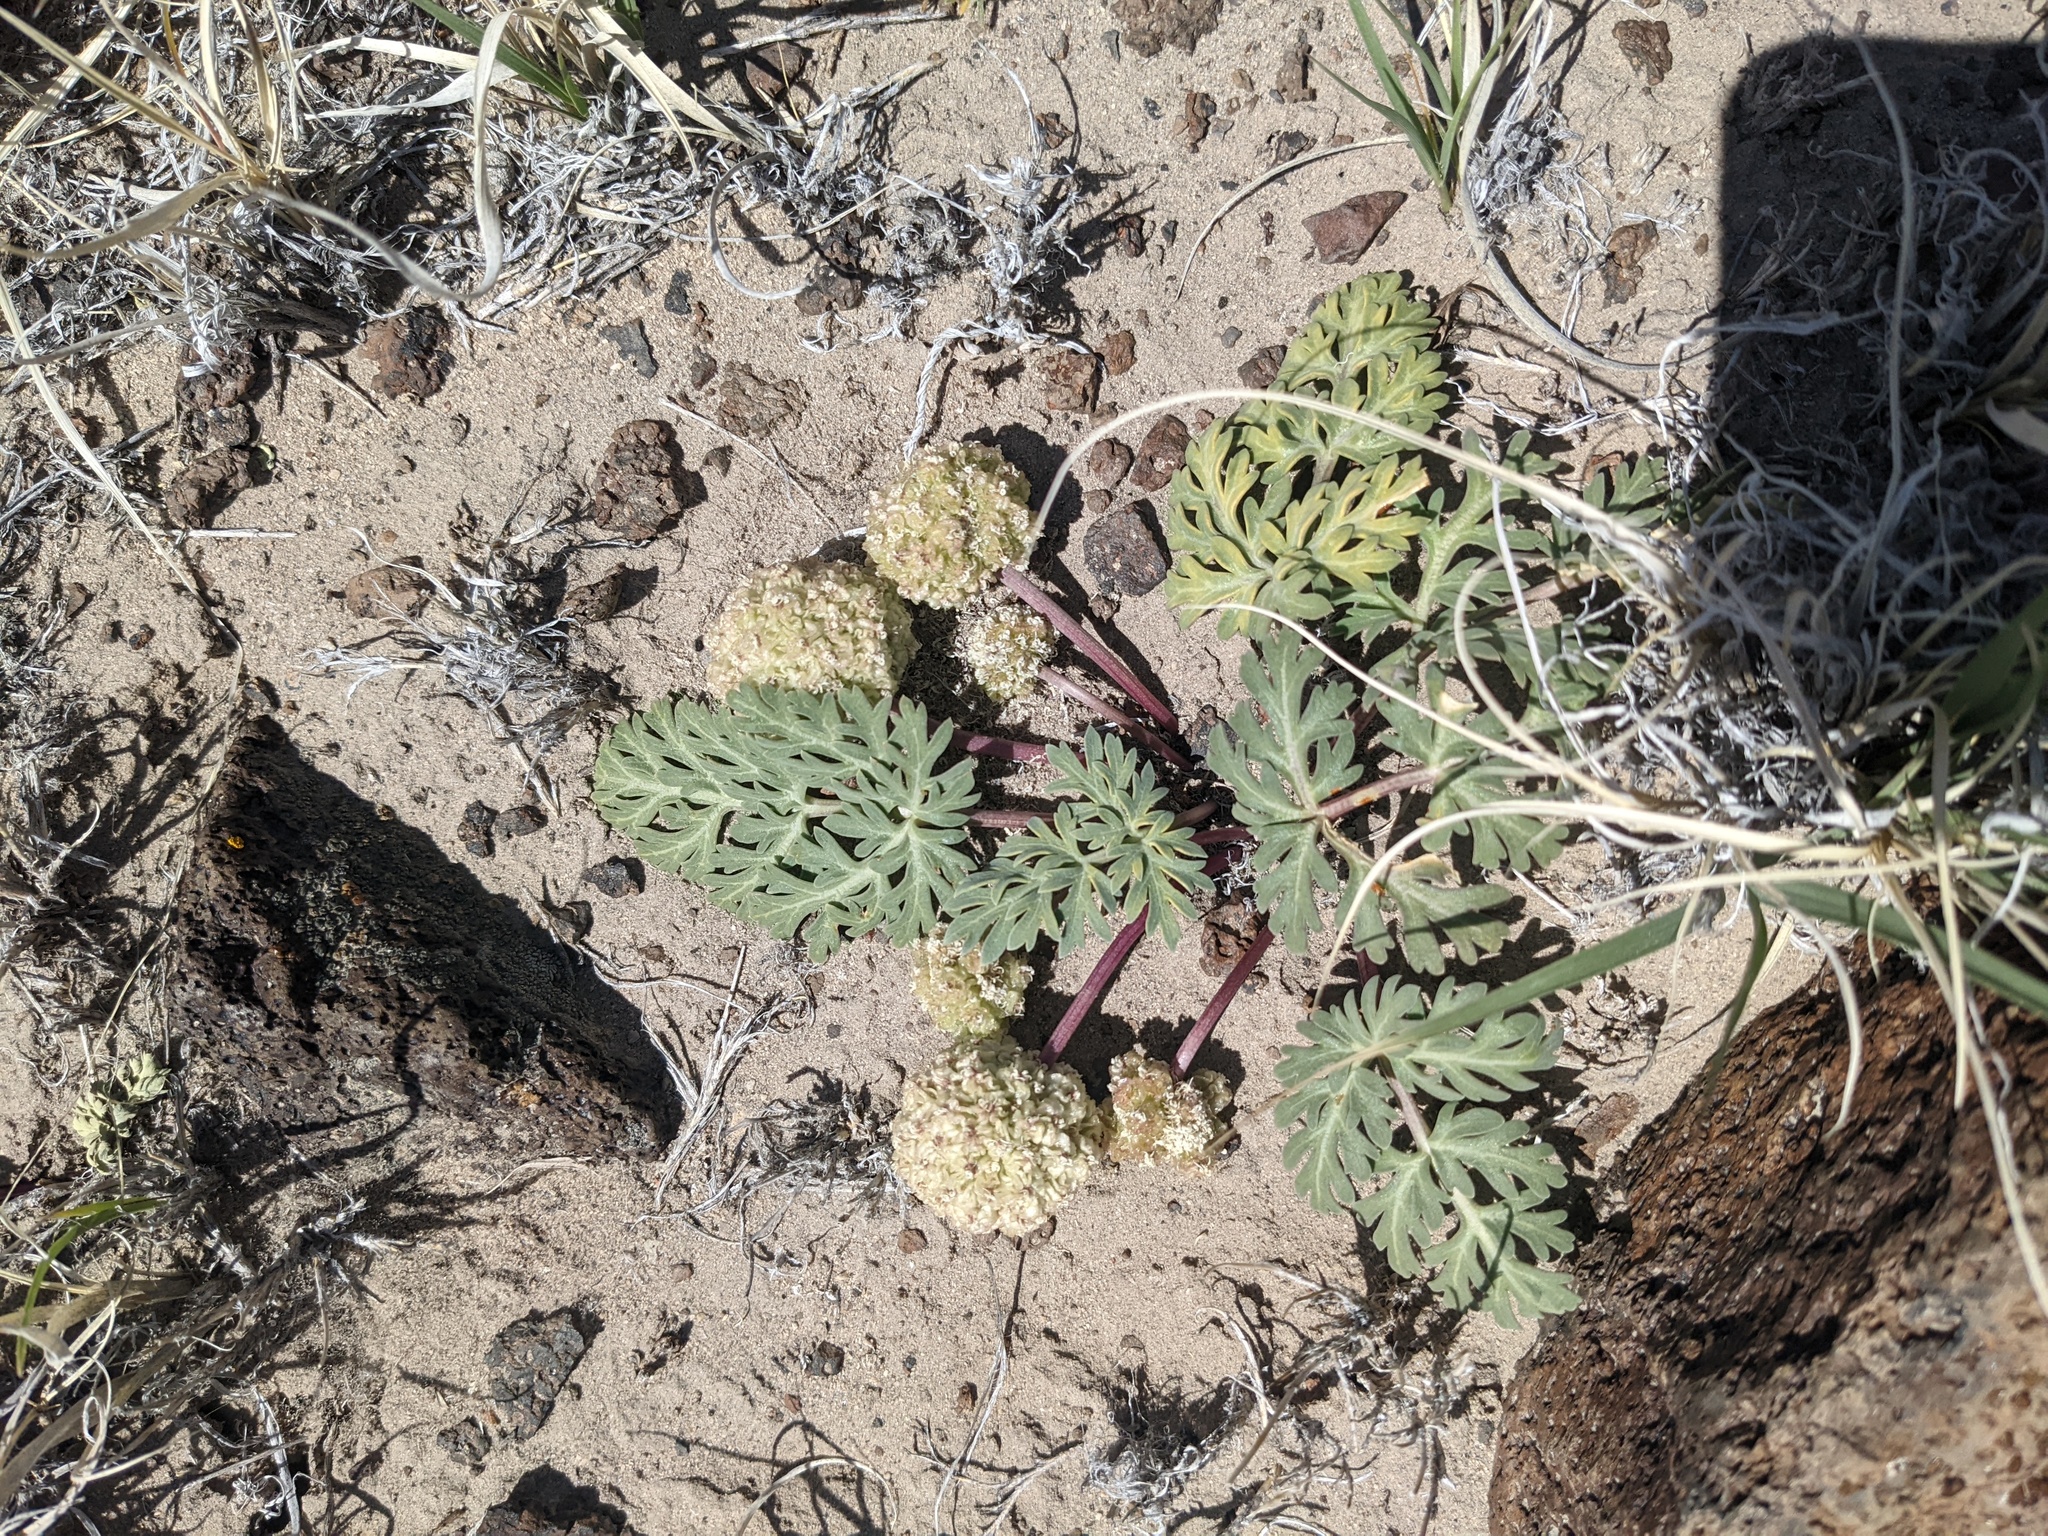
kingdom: Plantae
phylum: Tracheophyta
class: Magnoliopsida
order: Apiales
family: Apiaceae
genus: Cymopterus
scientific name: Cymopterus globosus
